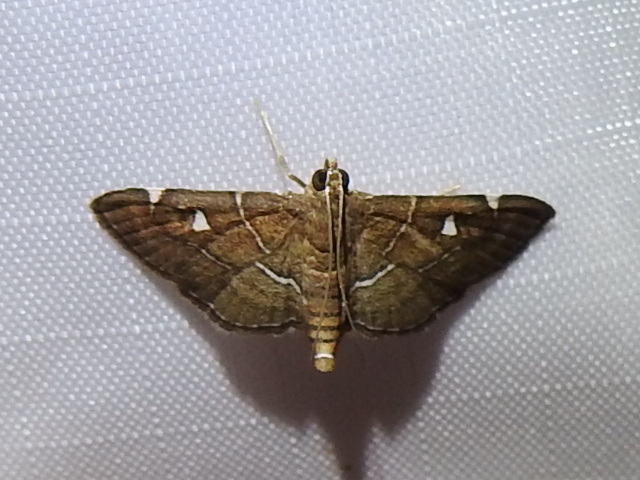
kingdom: Animalia
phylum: Arthropoda
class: Insecta
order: Lepidoptera
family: Crambidae
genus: Lamprosema
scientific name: Lamprosema victoriae
